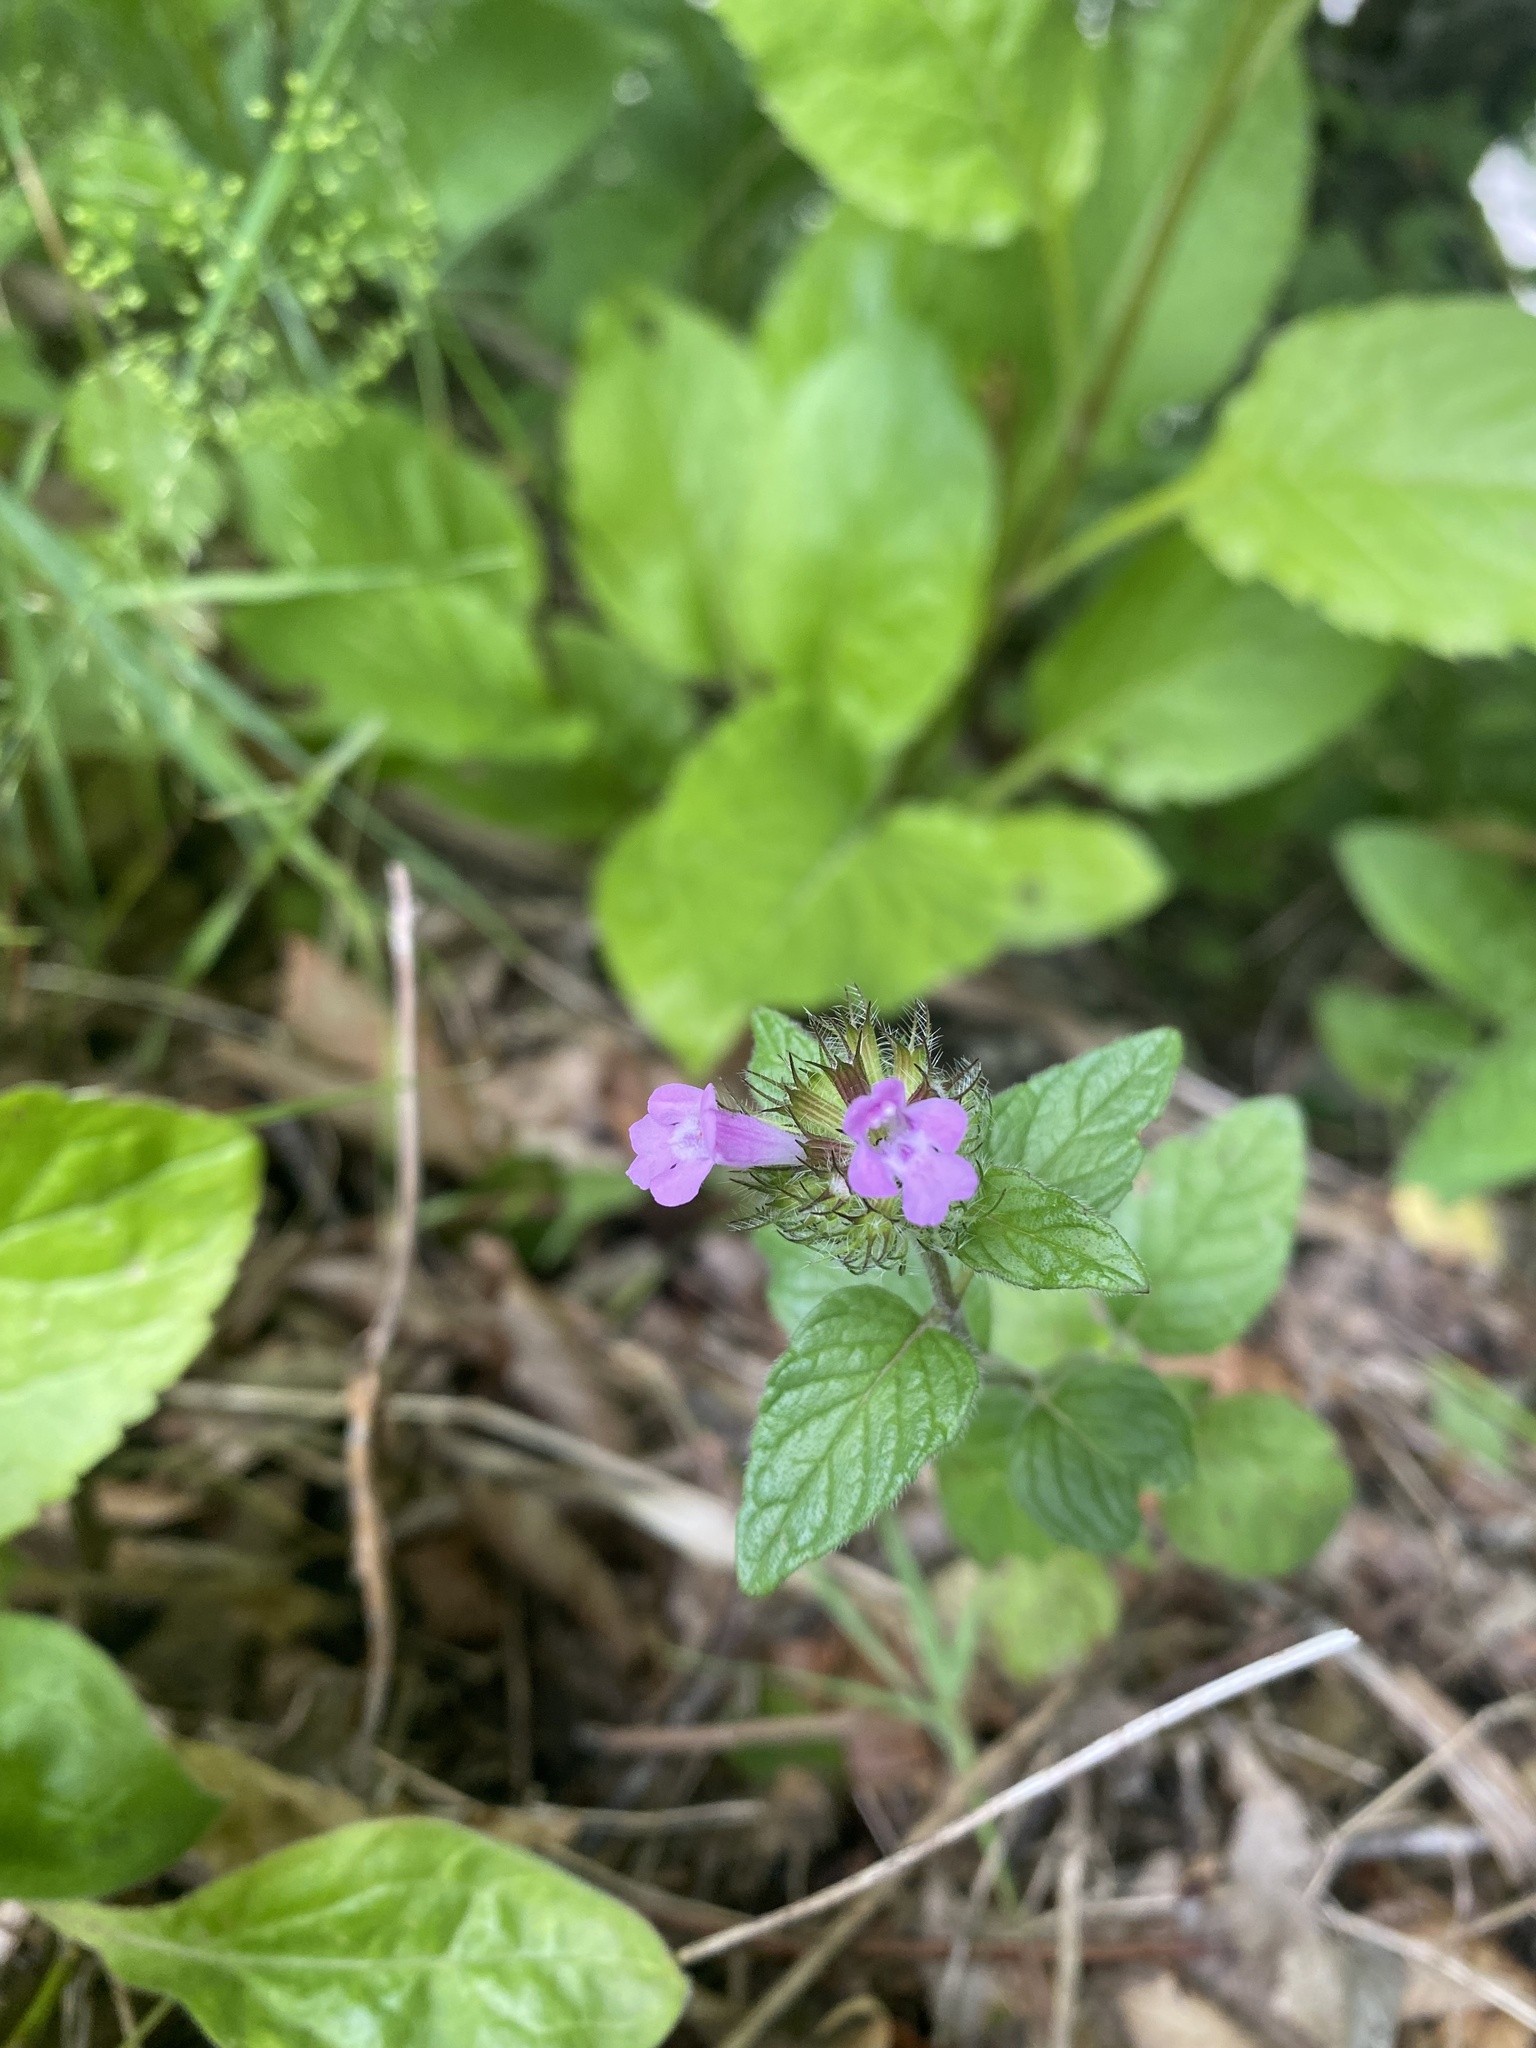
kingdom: Plantae
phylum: Tracheophyta
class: Magnoliopsida
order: Lamiales
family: Lamiaceae
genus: Clinopodium
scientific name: Clinopodium caucasicum
